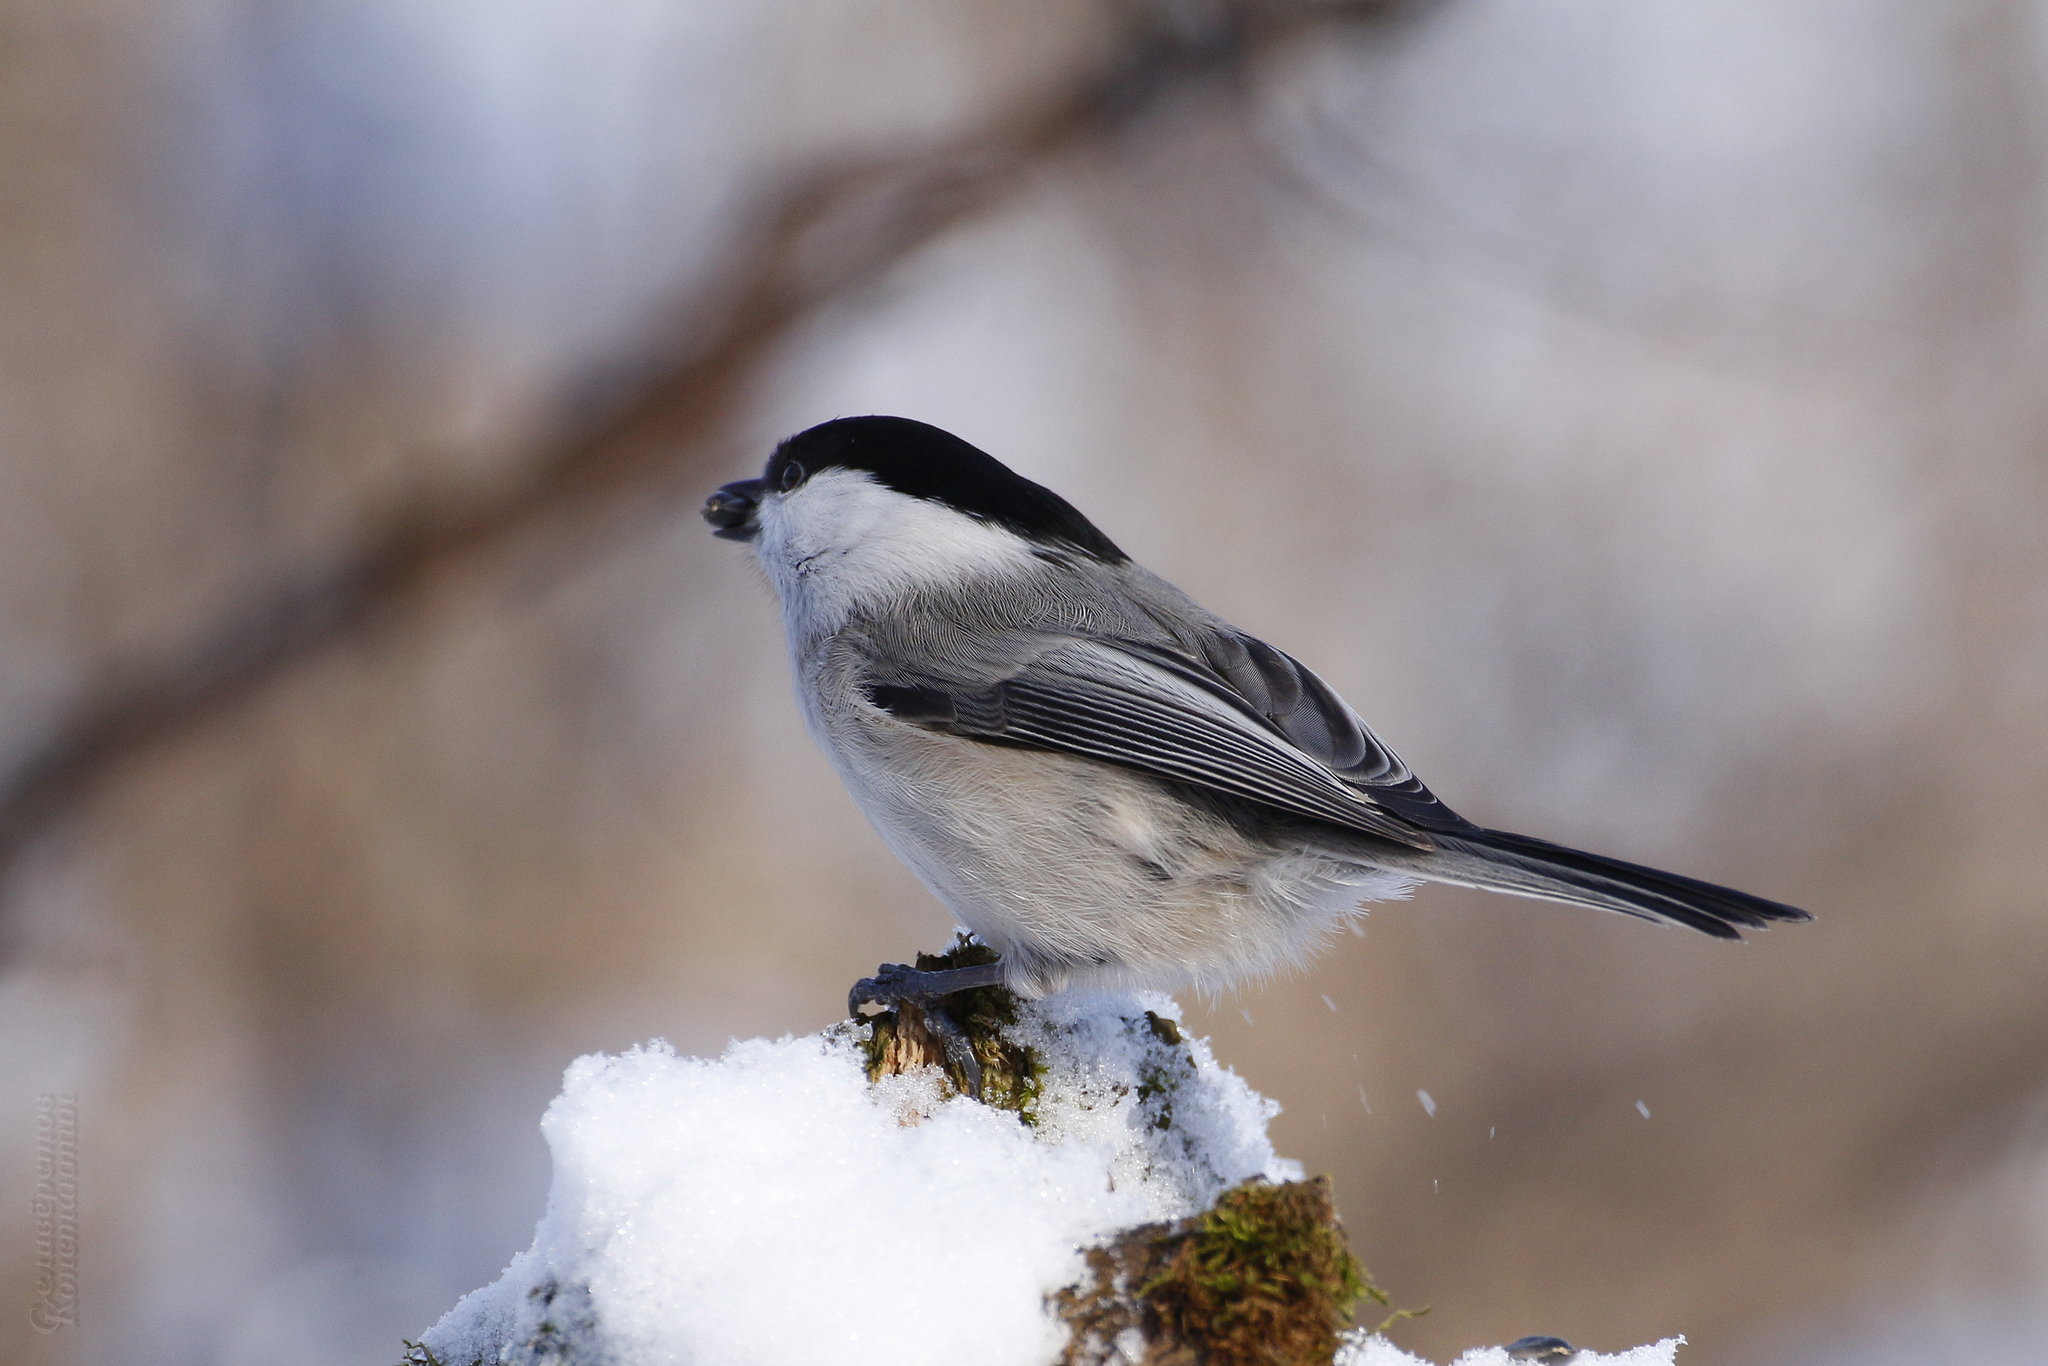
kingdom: Animalia
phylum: Chordata
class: Aves
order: Passeriformes
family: Paridae
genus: Poecile
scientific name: Poecile montanus
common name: Willow tit
